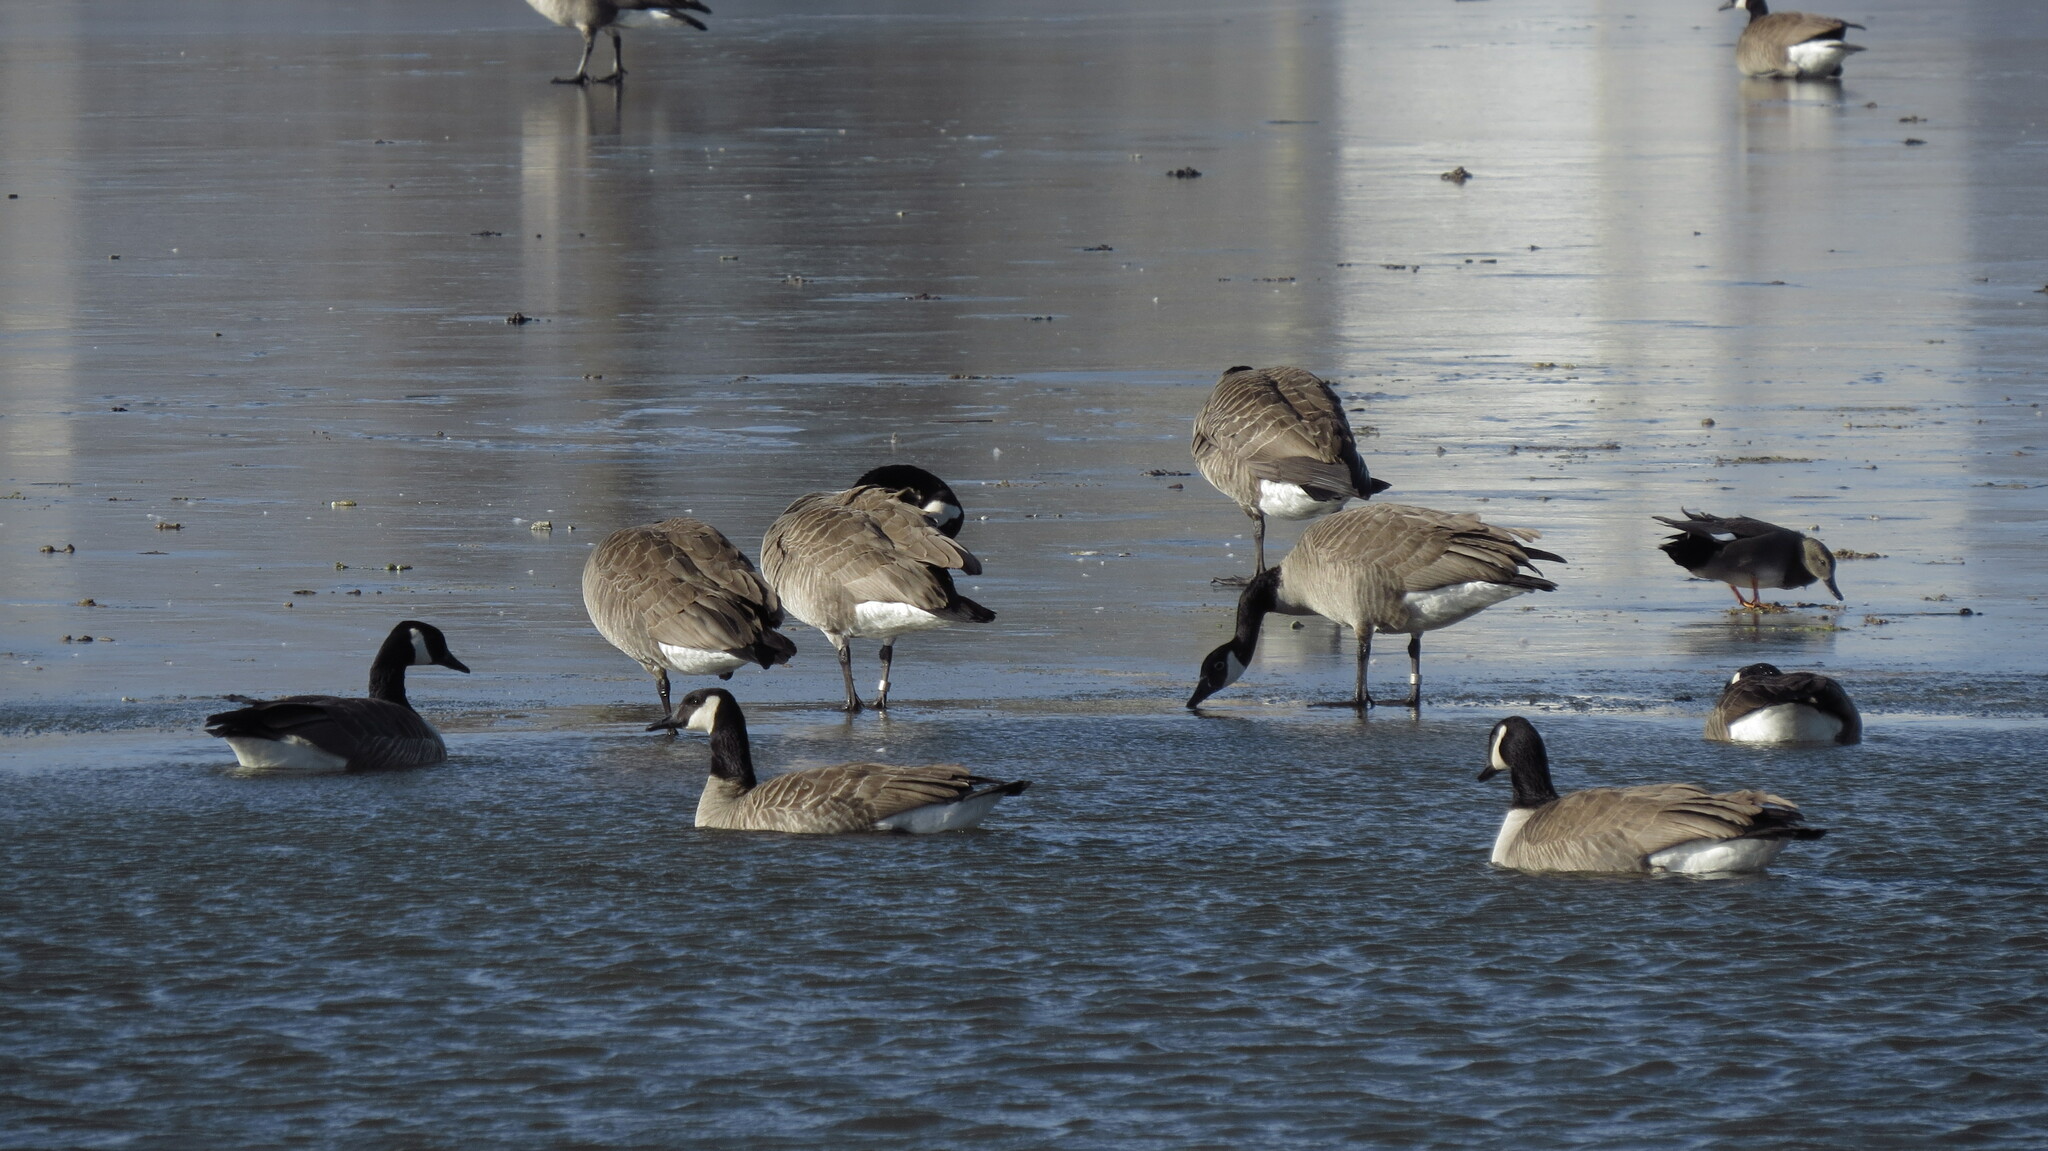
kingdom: Animalia
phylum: Chordata
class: Aves
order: Anseriformes
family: Anatidae
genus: Branta
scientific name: Branta canadensis
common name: Canada goose
